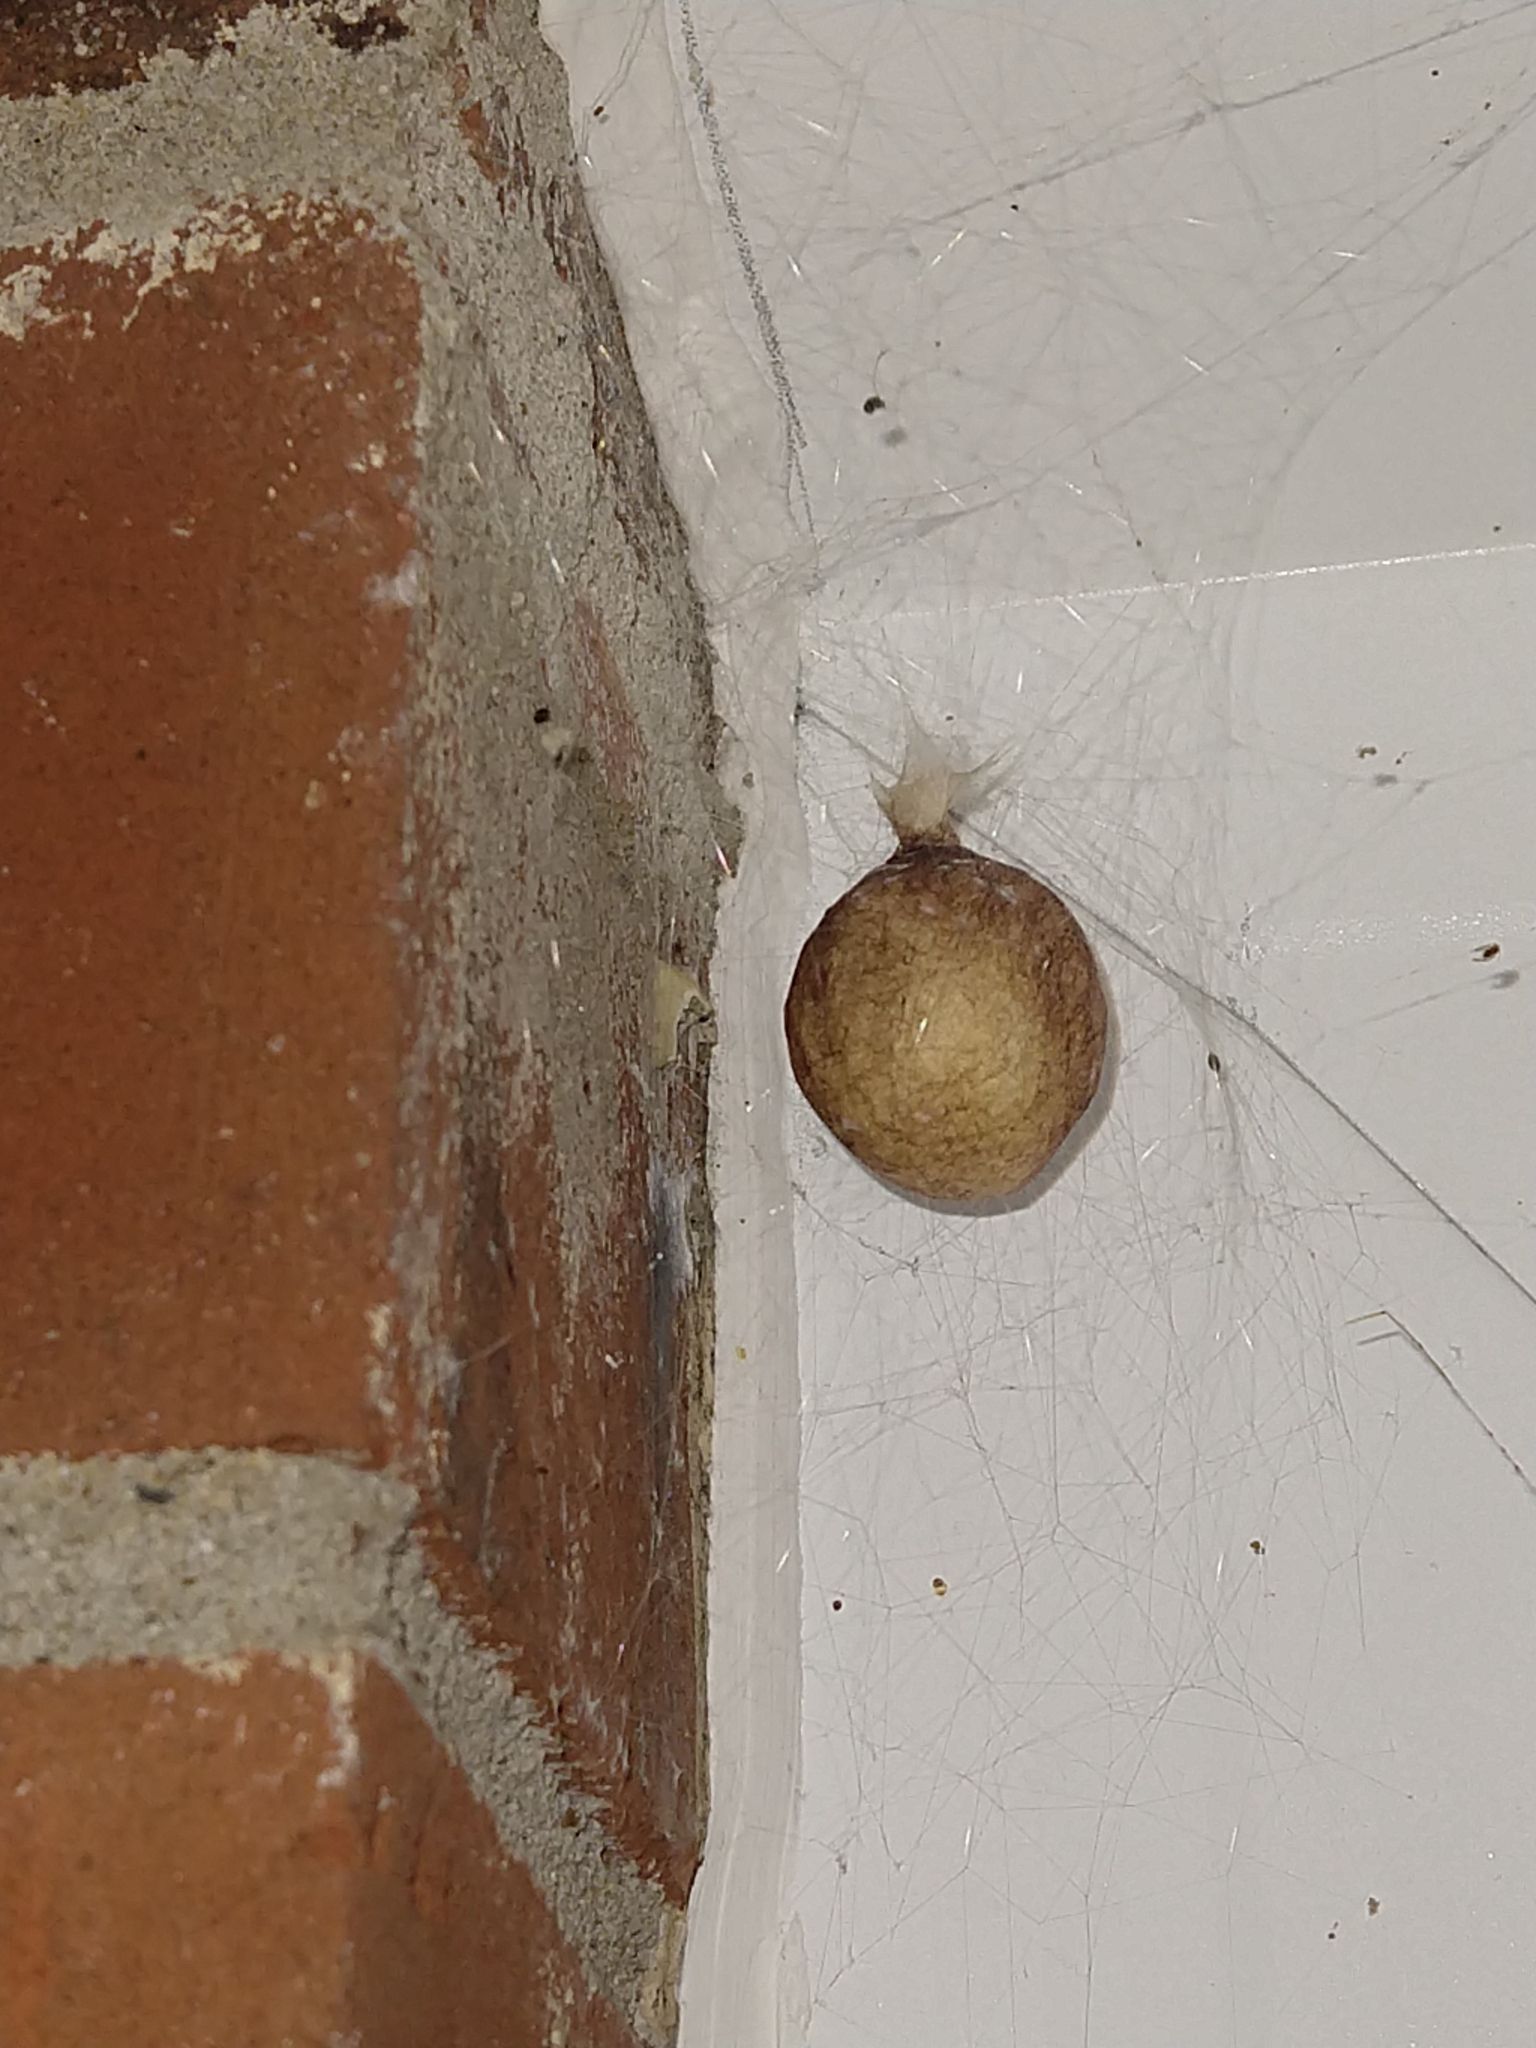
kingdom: Animalia
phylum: Arthropoda
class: Arachnida
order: Araneae
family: Araneidae
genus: Argiope
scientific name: Argiope aurantia
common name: Orb weavers
